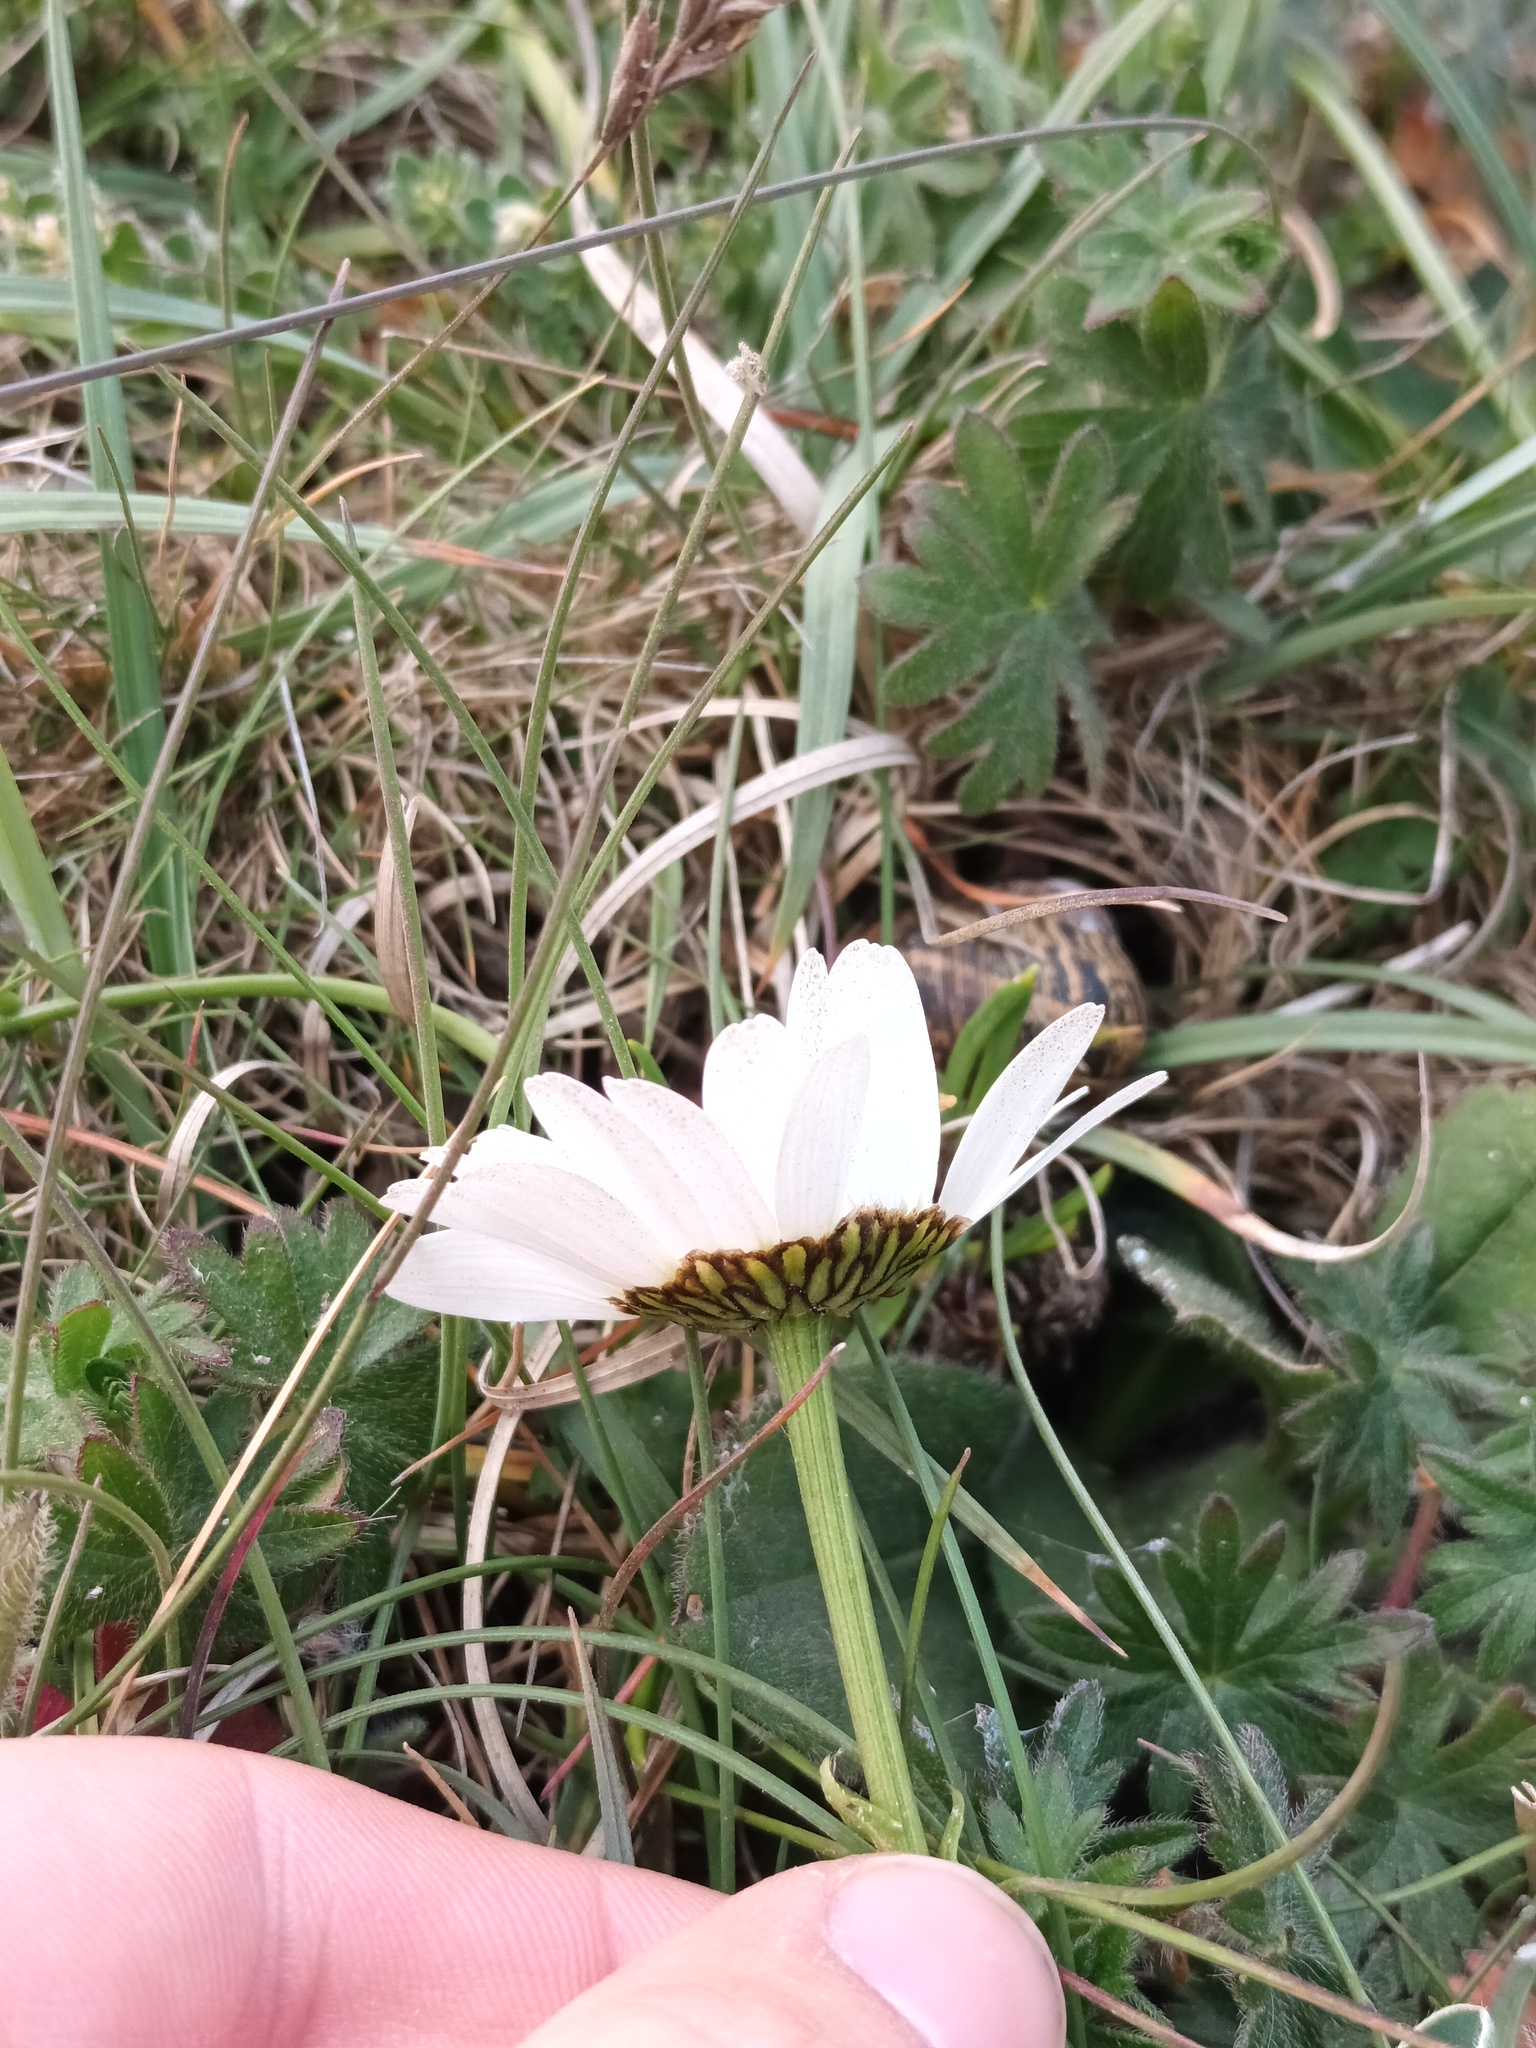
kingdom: Plantae
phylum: Tracheophyta
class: Magnoliopsida
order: Asterales
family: Asteraceae
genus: Leucanthemum
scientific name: Leucanthemum vulgare
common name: Oxeye daisy
